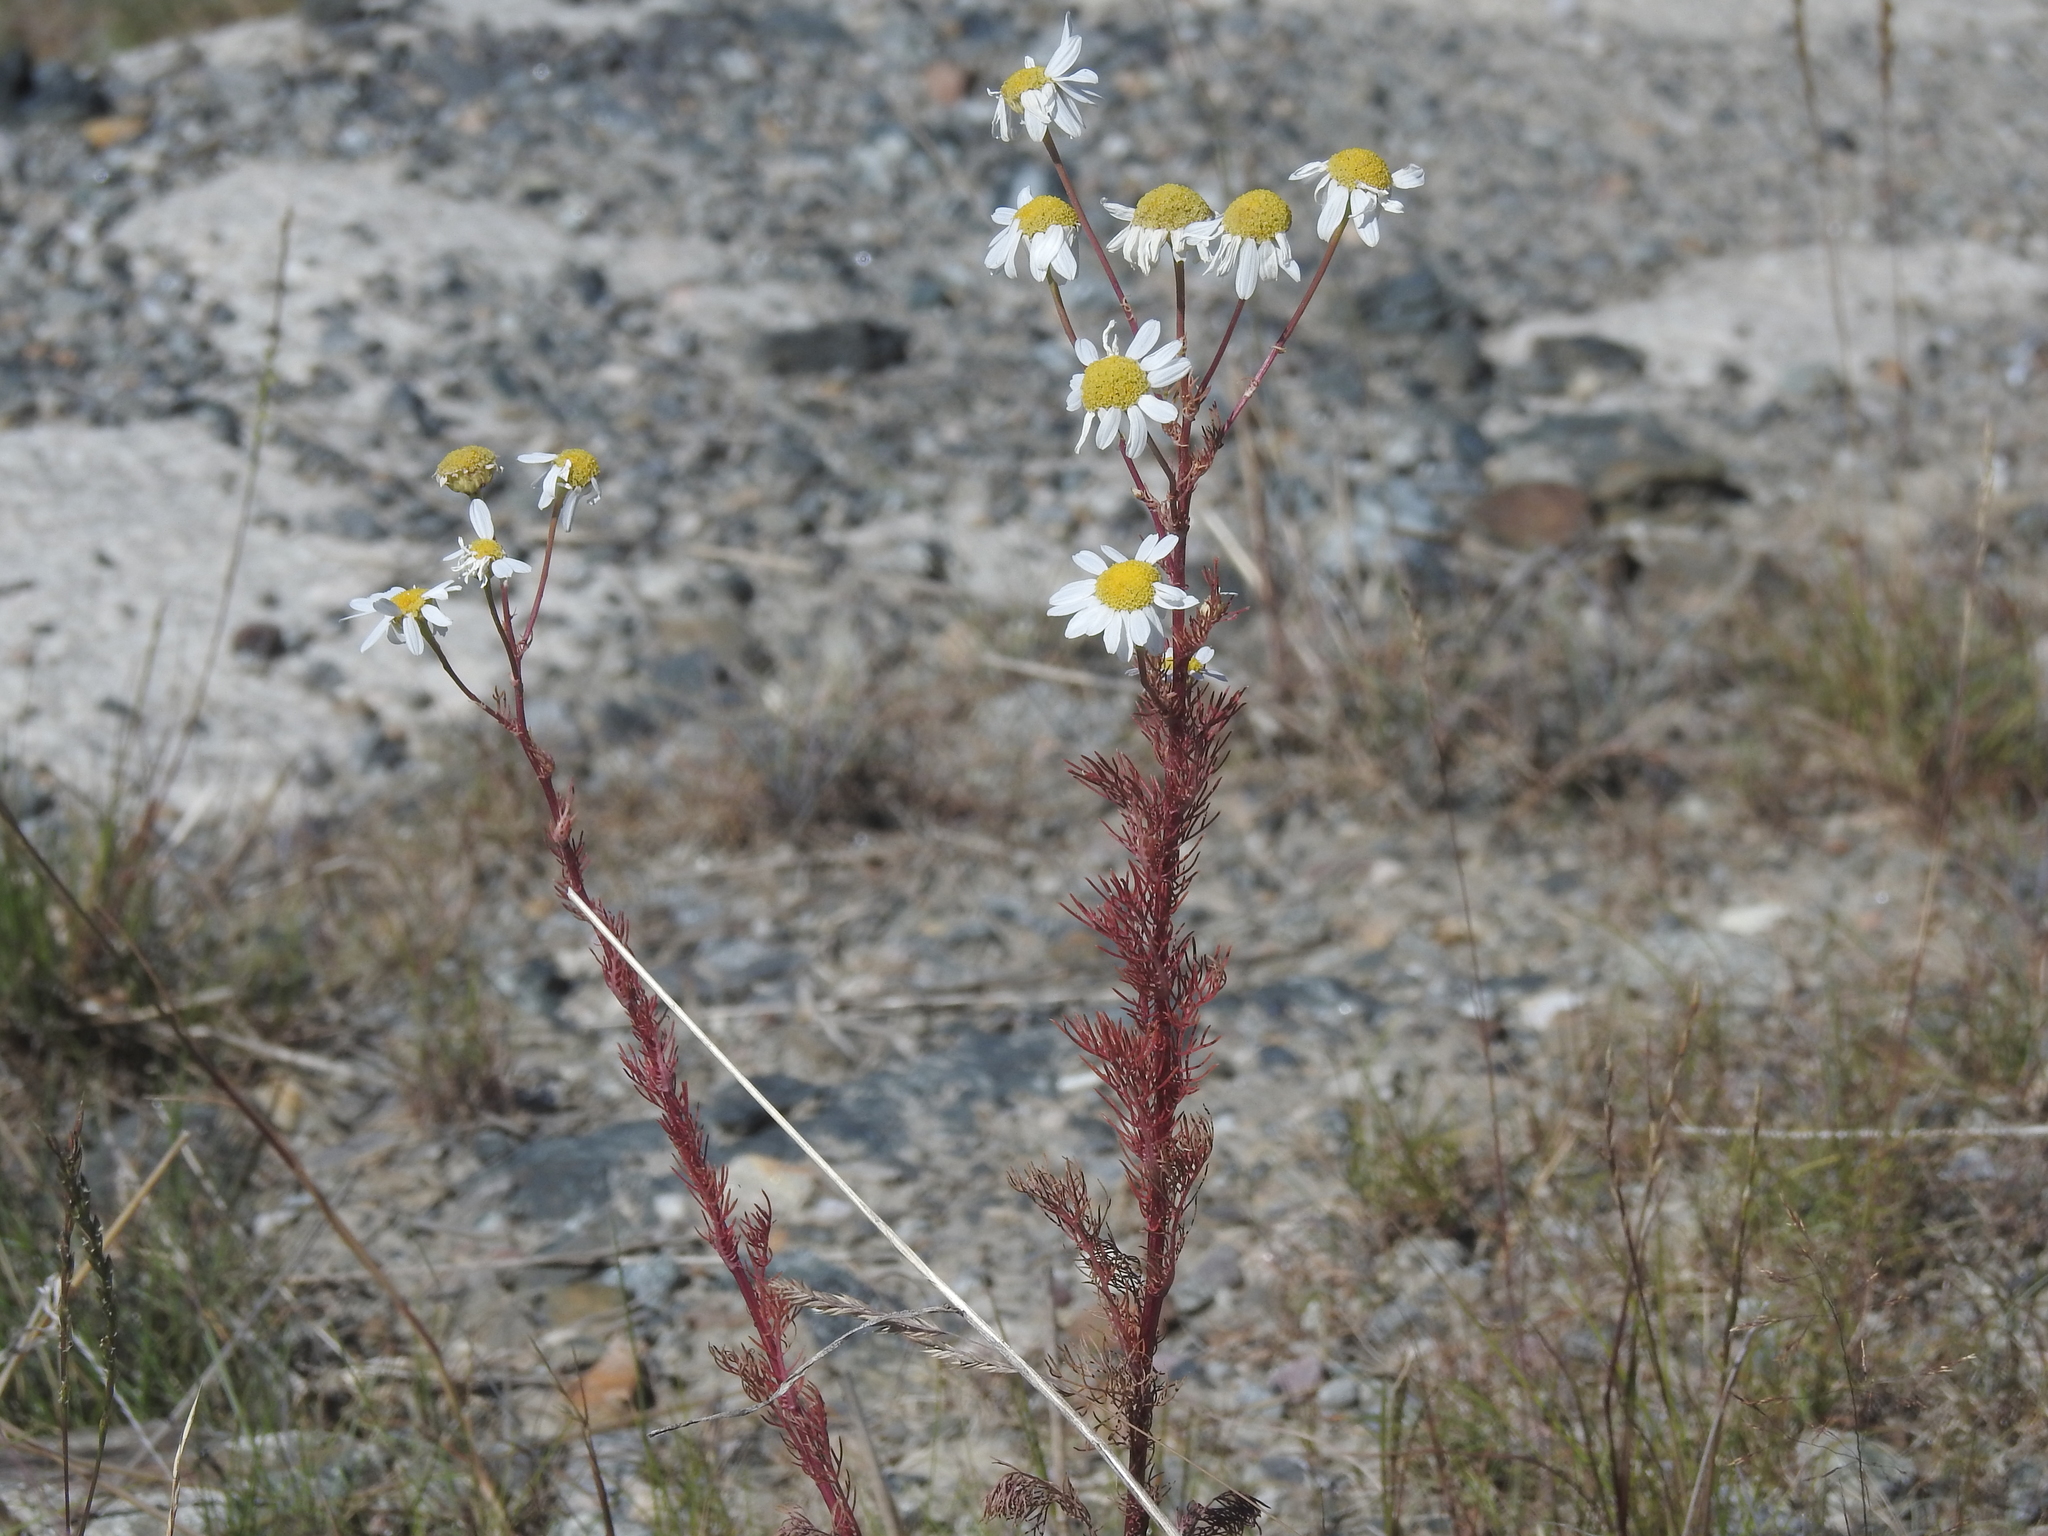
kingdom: Plantae
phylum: Tracheophyta
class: Magnoliopsida
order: Asterales
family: Asteraceae
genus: Tripleurospermum
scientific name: Tripleurospermum inodorum
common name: Scentless mayweed
